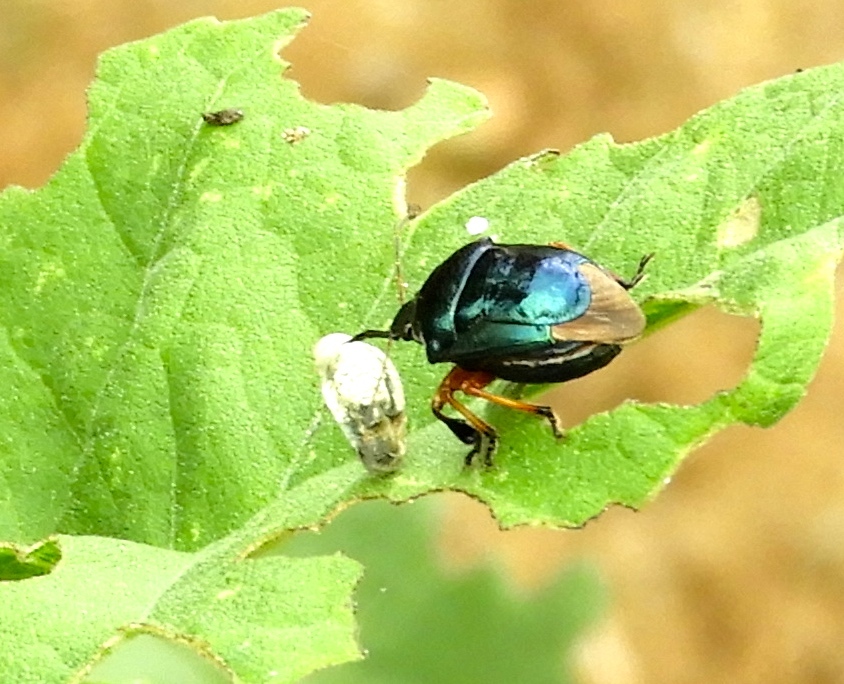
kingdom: Animalia
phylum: Arthropoda
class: Insecta
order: Hemiptera
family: Pentatomidae
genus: Stiretrus
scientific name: Stiretrus
